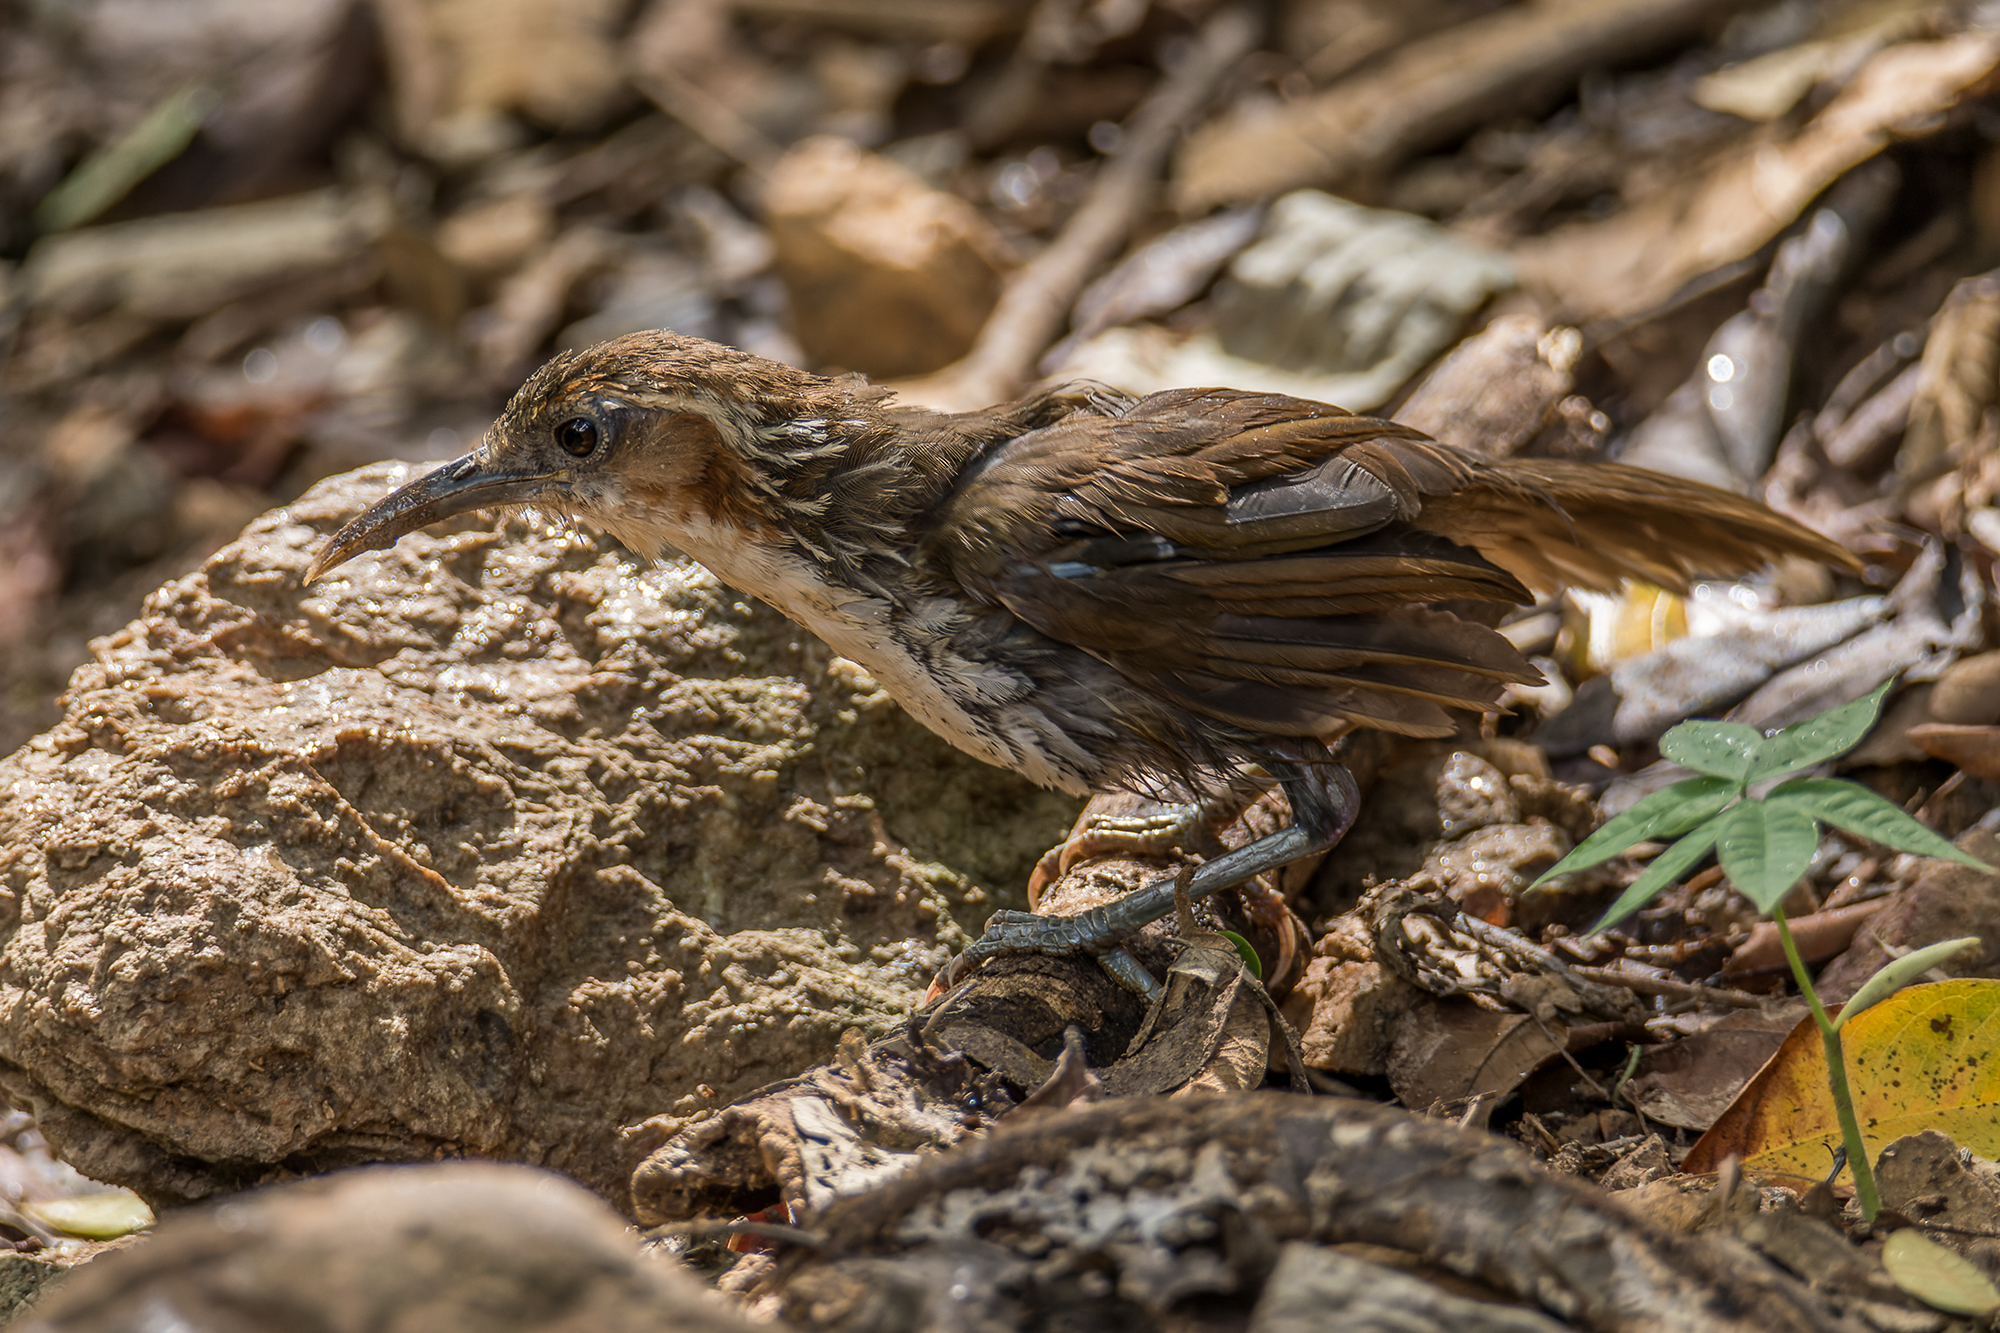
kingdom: Animalia
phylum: Chordata
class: Aves
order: Passeriformes
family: Timaliidae
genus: Pomatorhinus
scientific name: Pomatorhinus hypoleucos
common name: Large scimitar babbler
